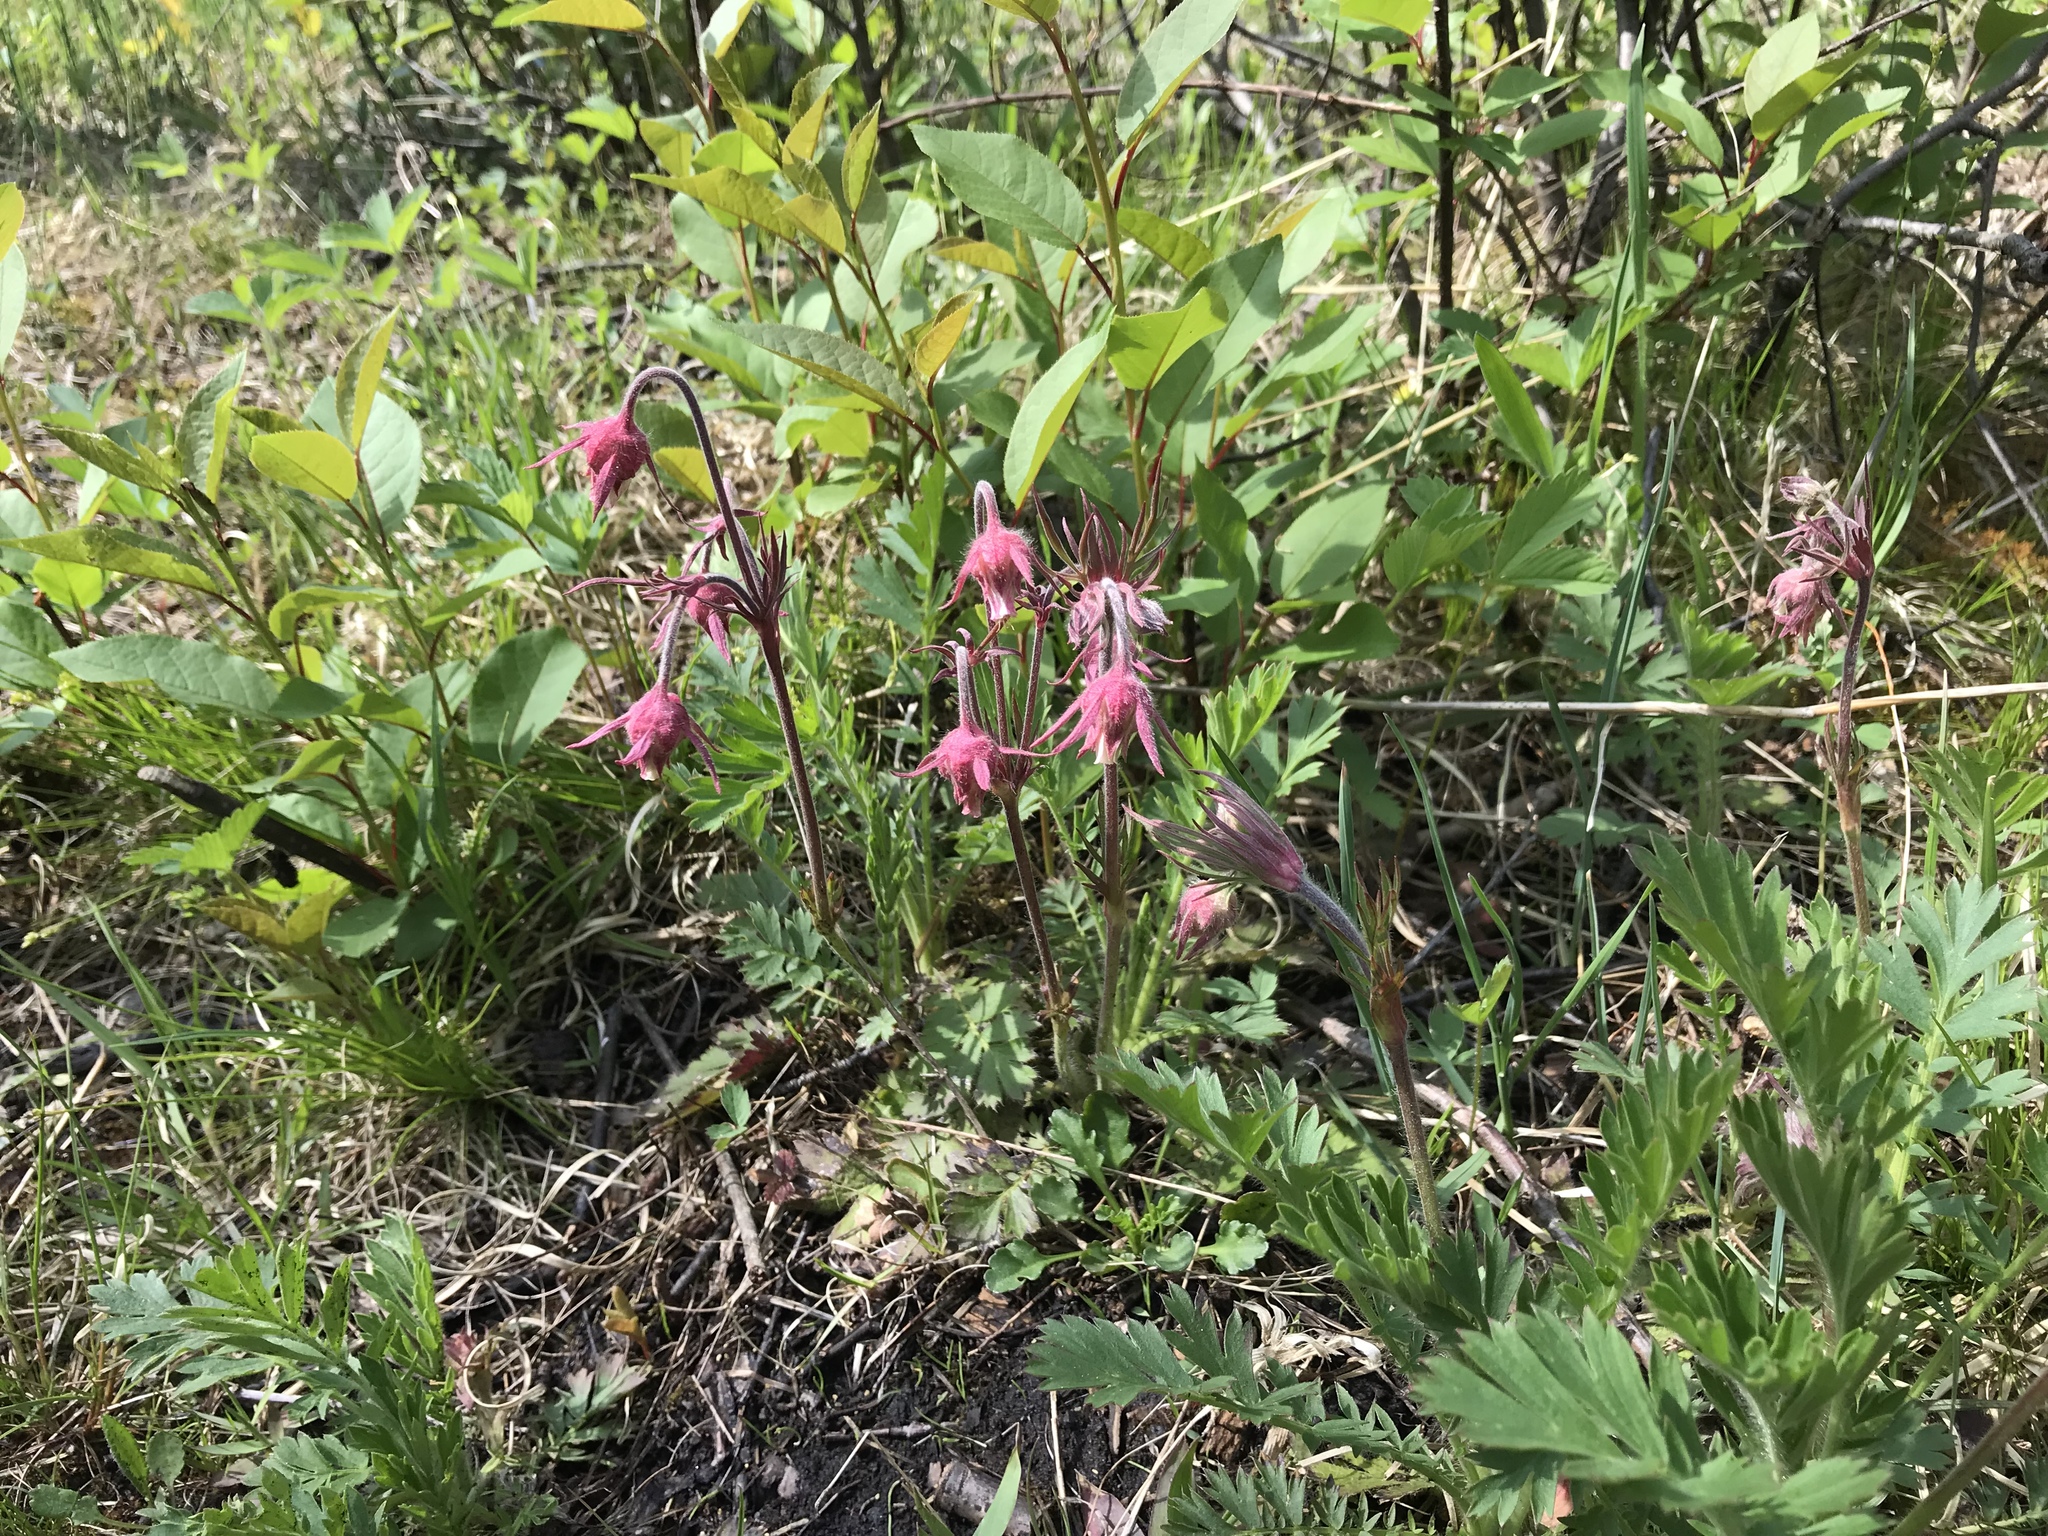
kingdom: Plantae
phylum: Tracheophyta
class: Magnoliopsida
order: Rosales
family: Rosaceae
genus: Geum
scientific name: Geum triflorum
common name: Old man's whiskers
